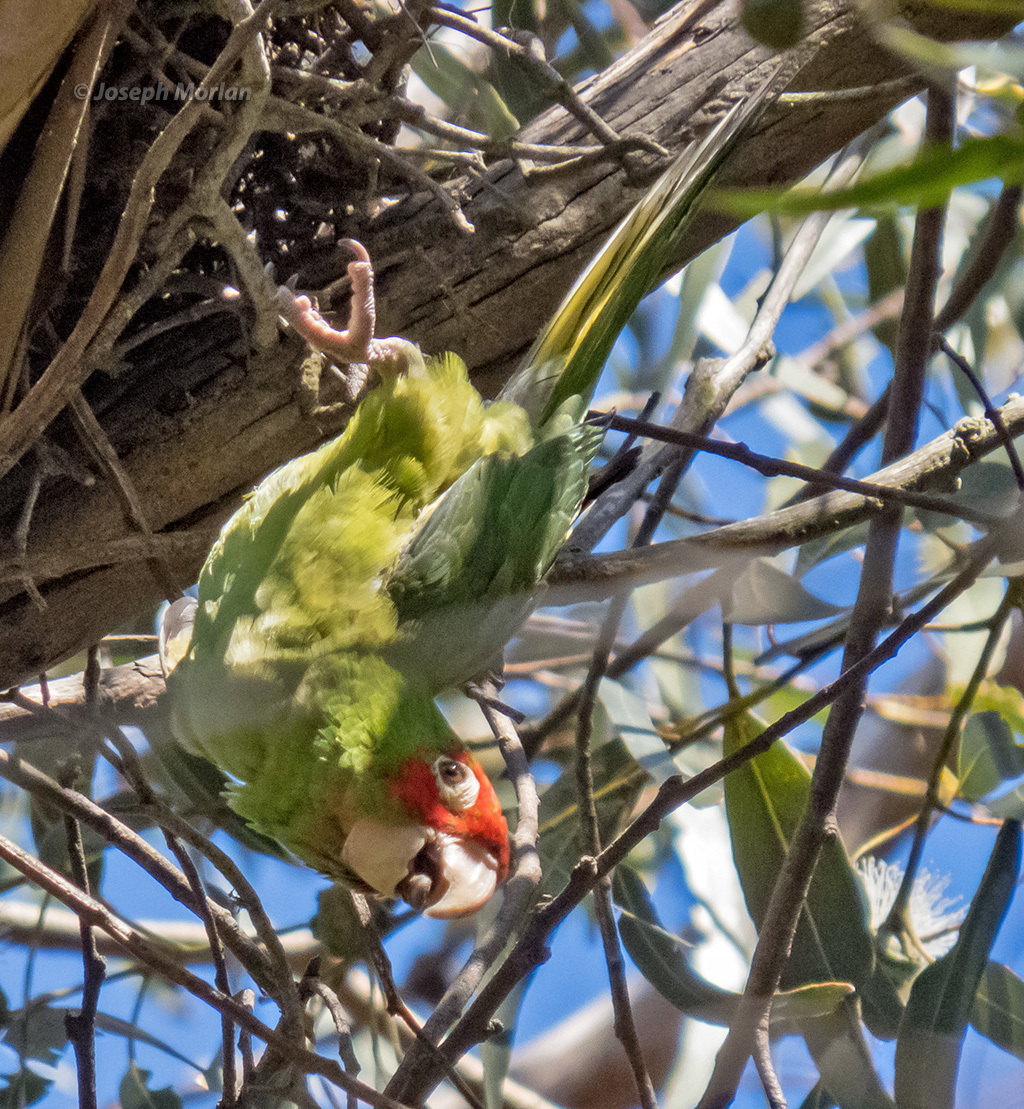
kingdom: Animalia
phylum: Chordata
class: Aves
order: Psittaciformes
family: Psittacidae
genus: Aratinga
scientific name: Aratinga erythrogenys
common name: Red-masked parakeet
